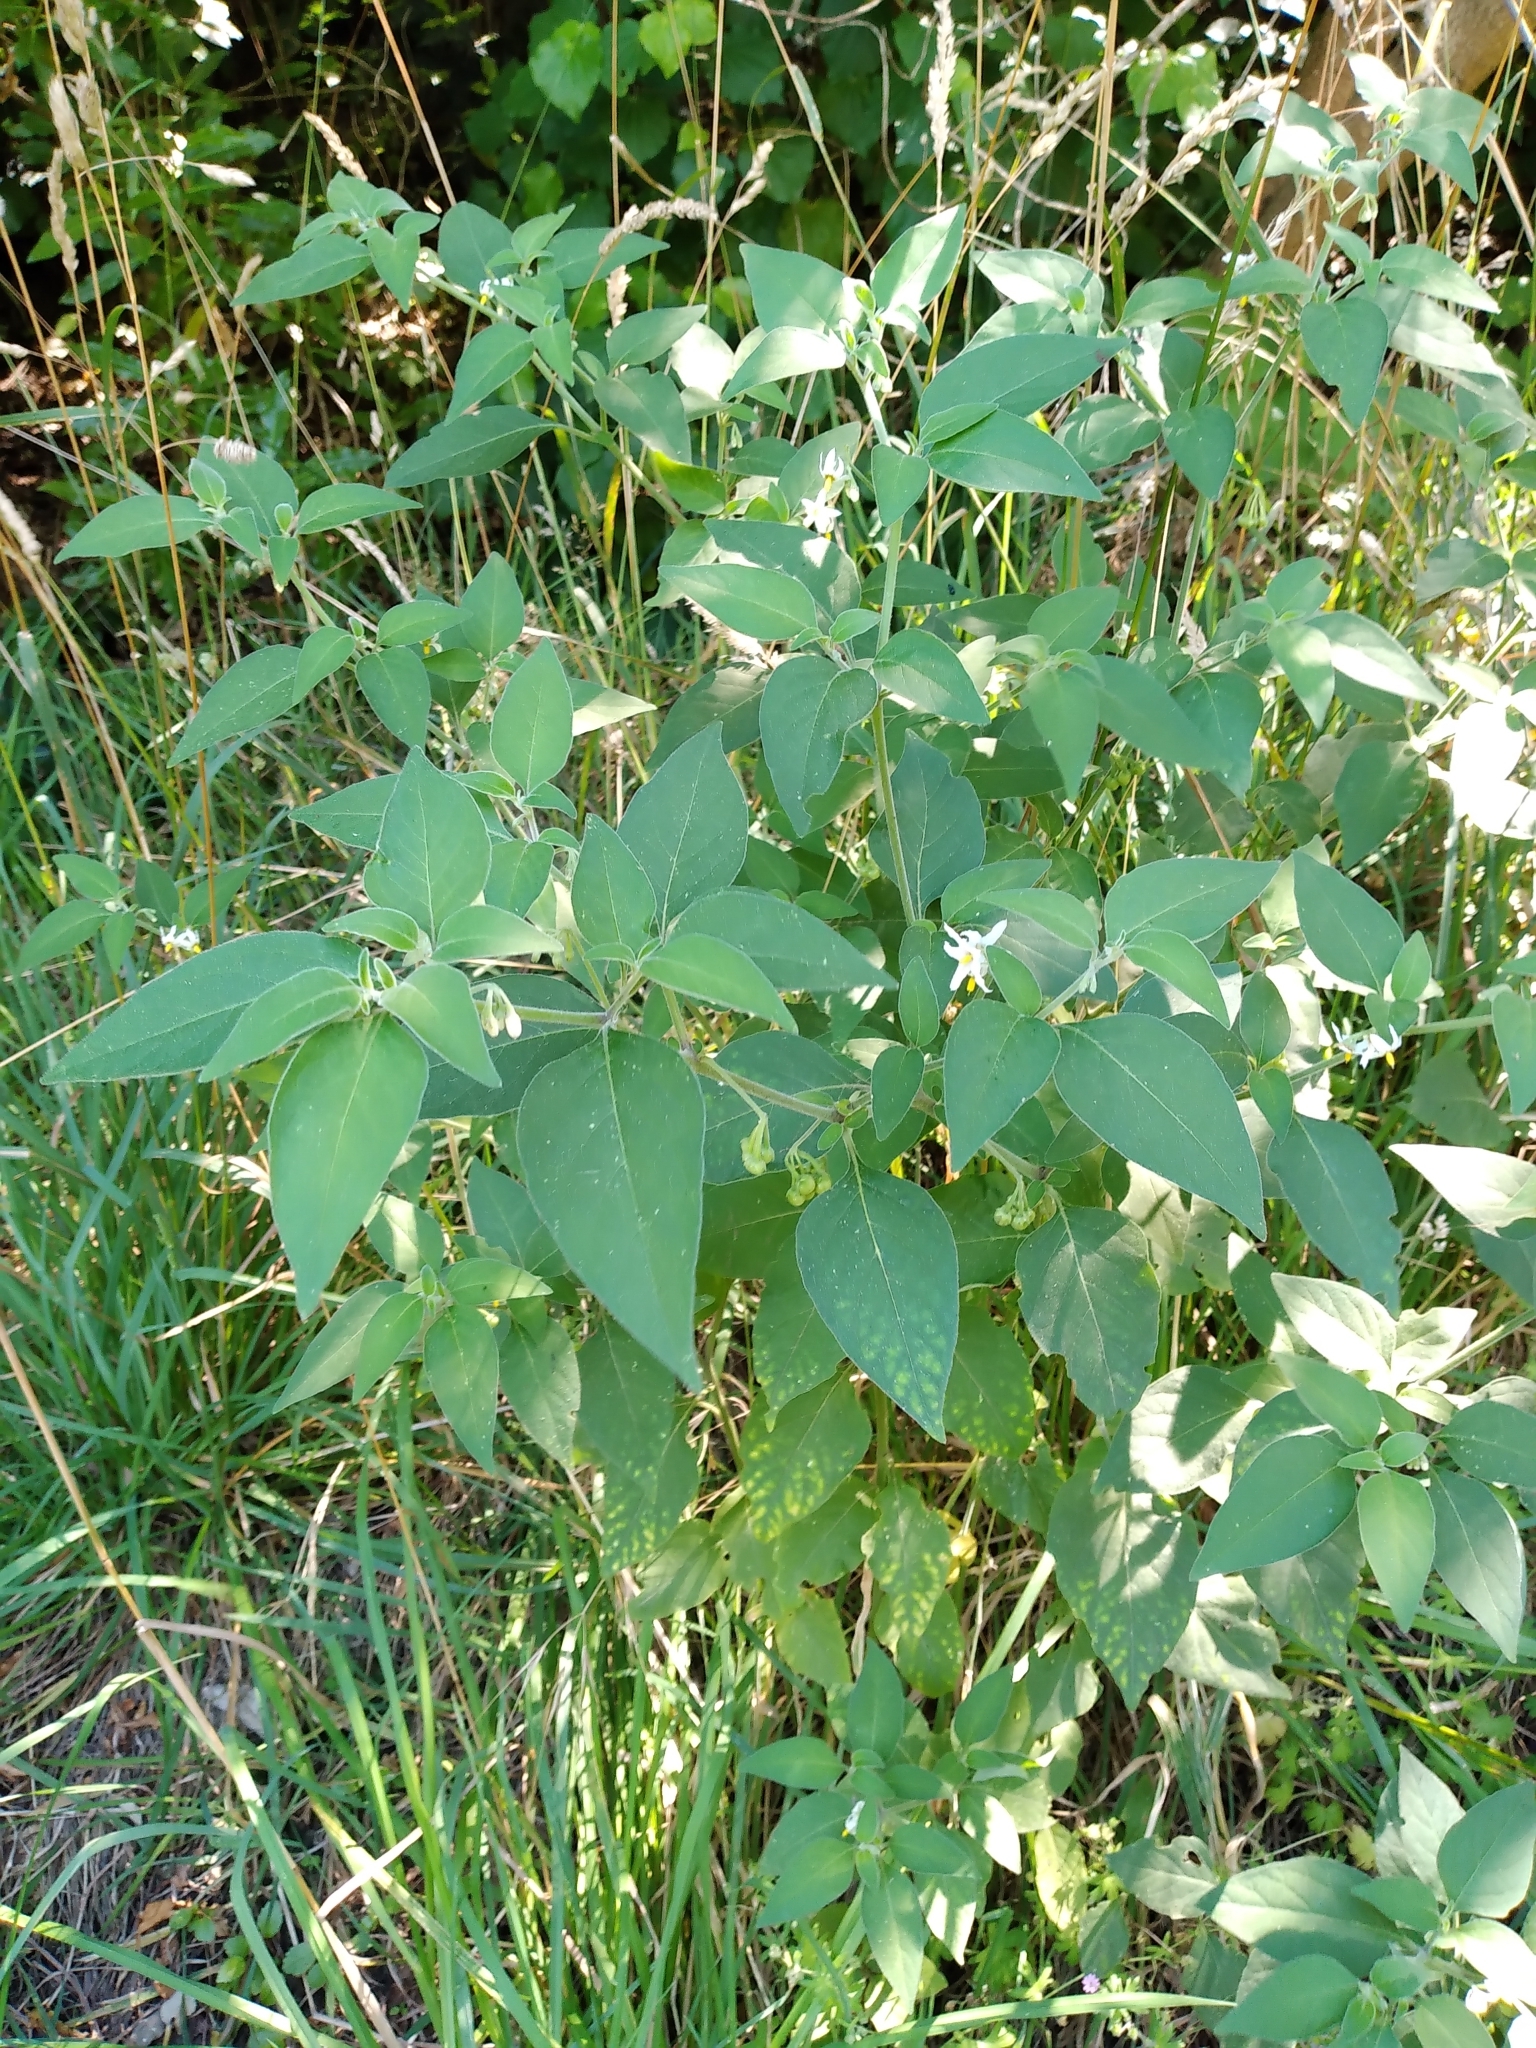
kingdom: Plantae
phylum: Tracheophyta
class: Magnoliopsida
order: Solanales
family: Solanaceae
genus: Solanum
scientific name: Solanum chenopodioides
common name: Tall nightshade
